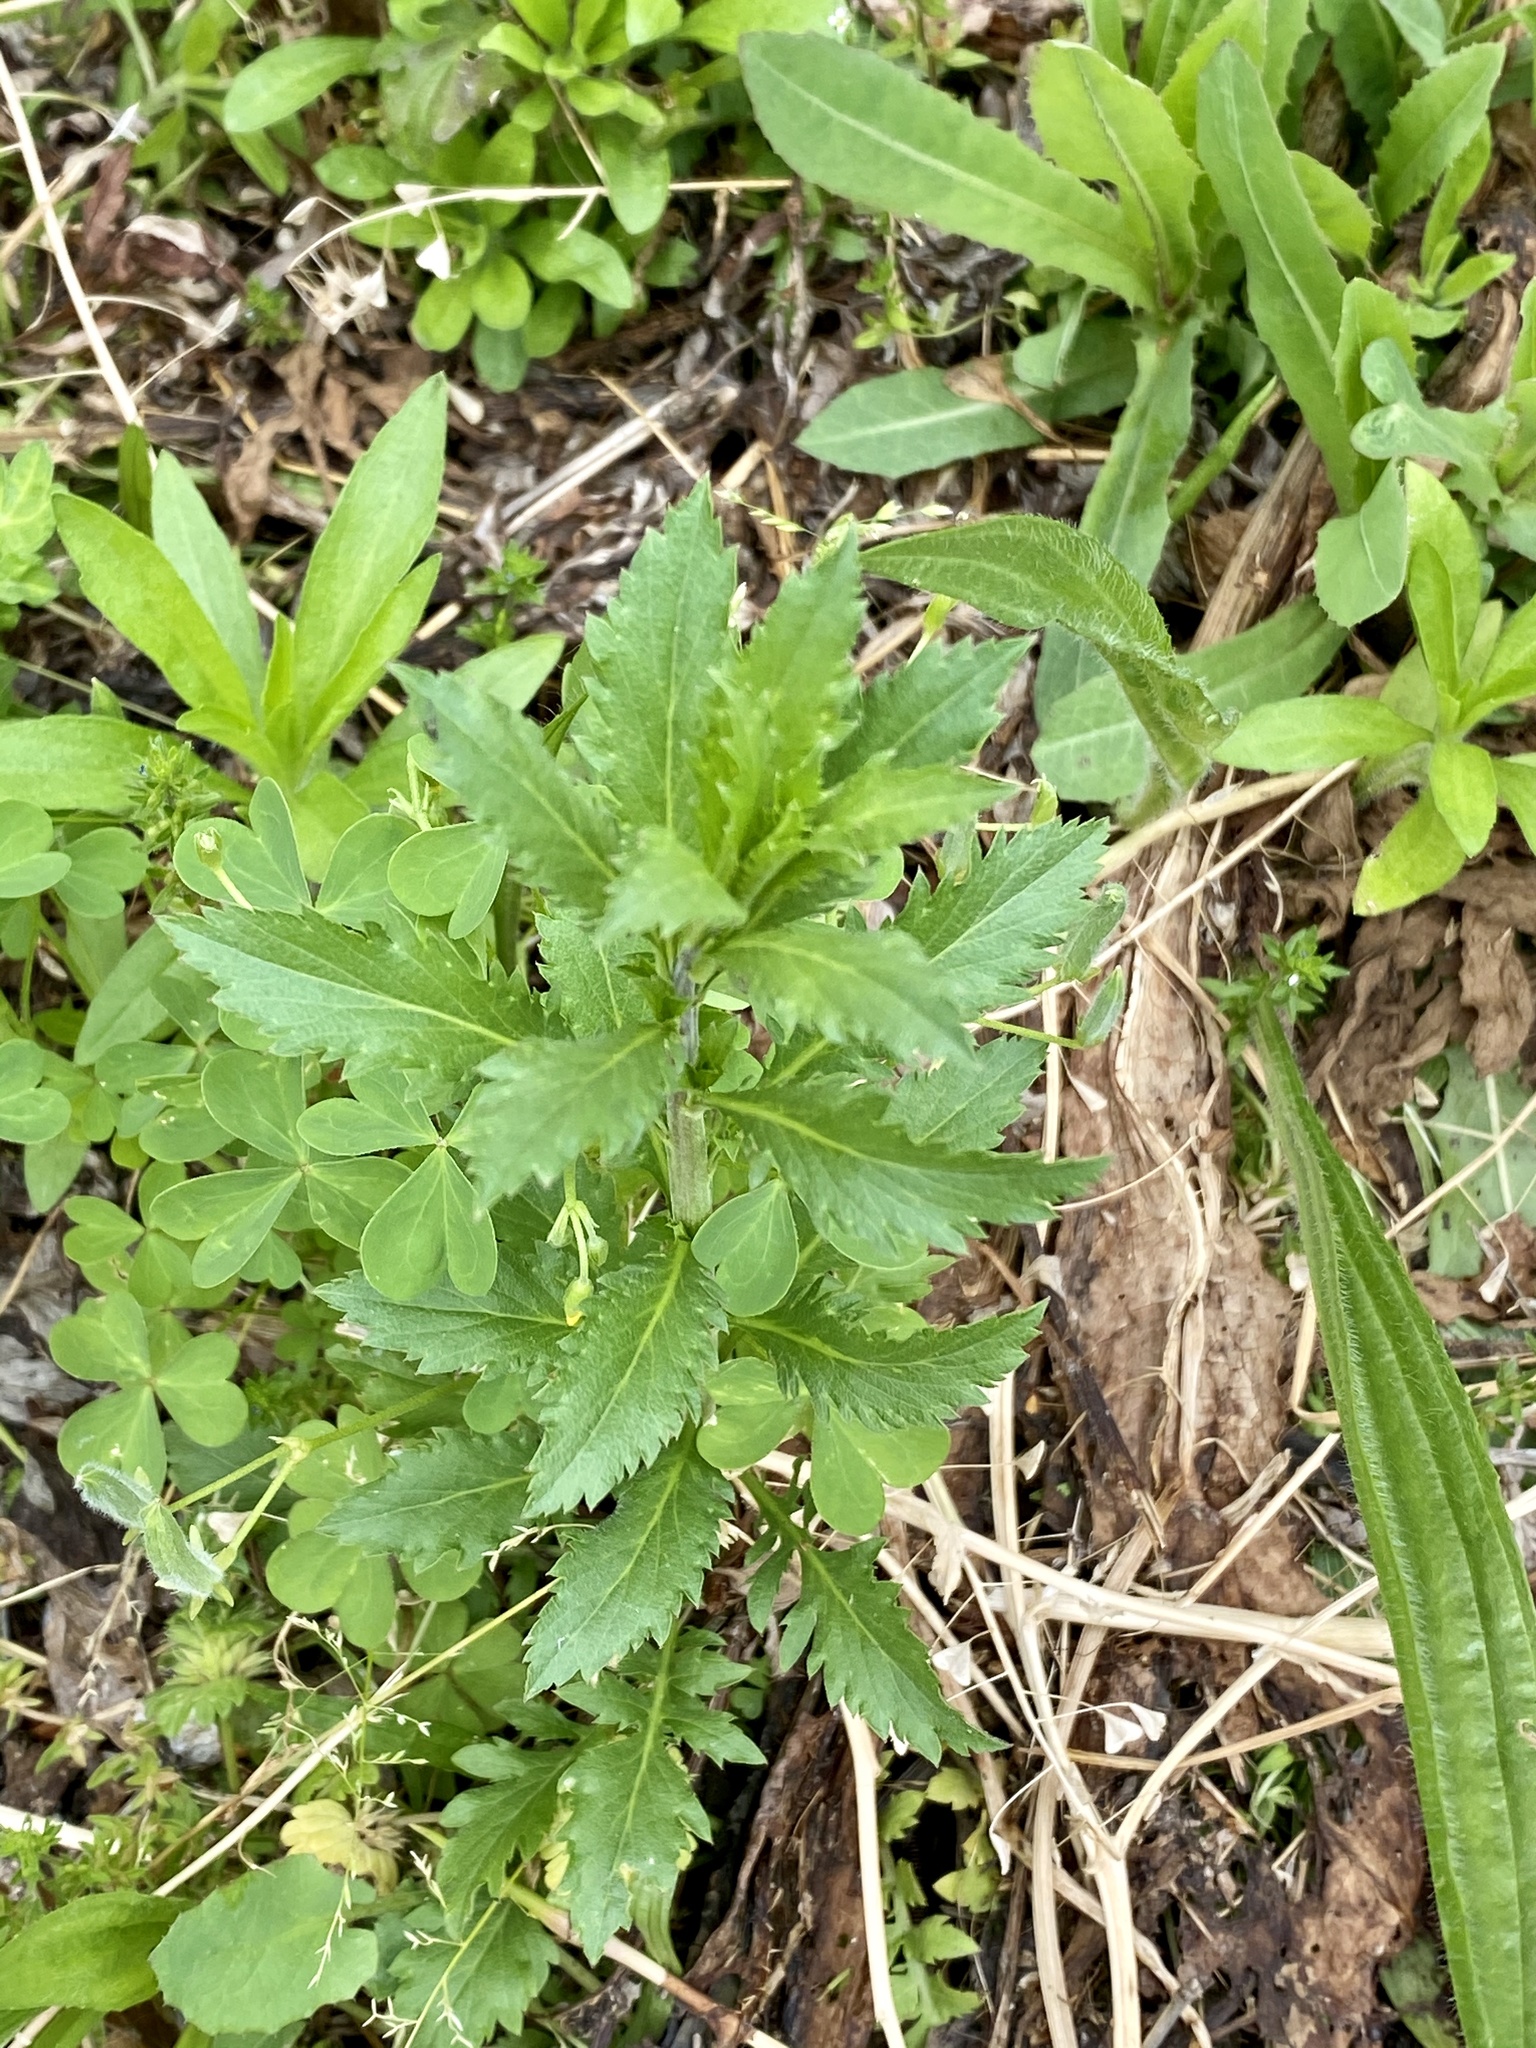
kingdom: Plantae
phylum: Tracheophyta
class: Magnoliopsida
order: Caryophyllales
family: Amaranthaceae
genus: Dysphania
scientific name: Dysphania ambrosioides
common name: Wormseed
